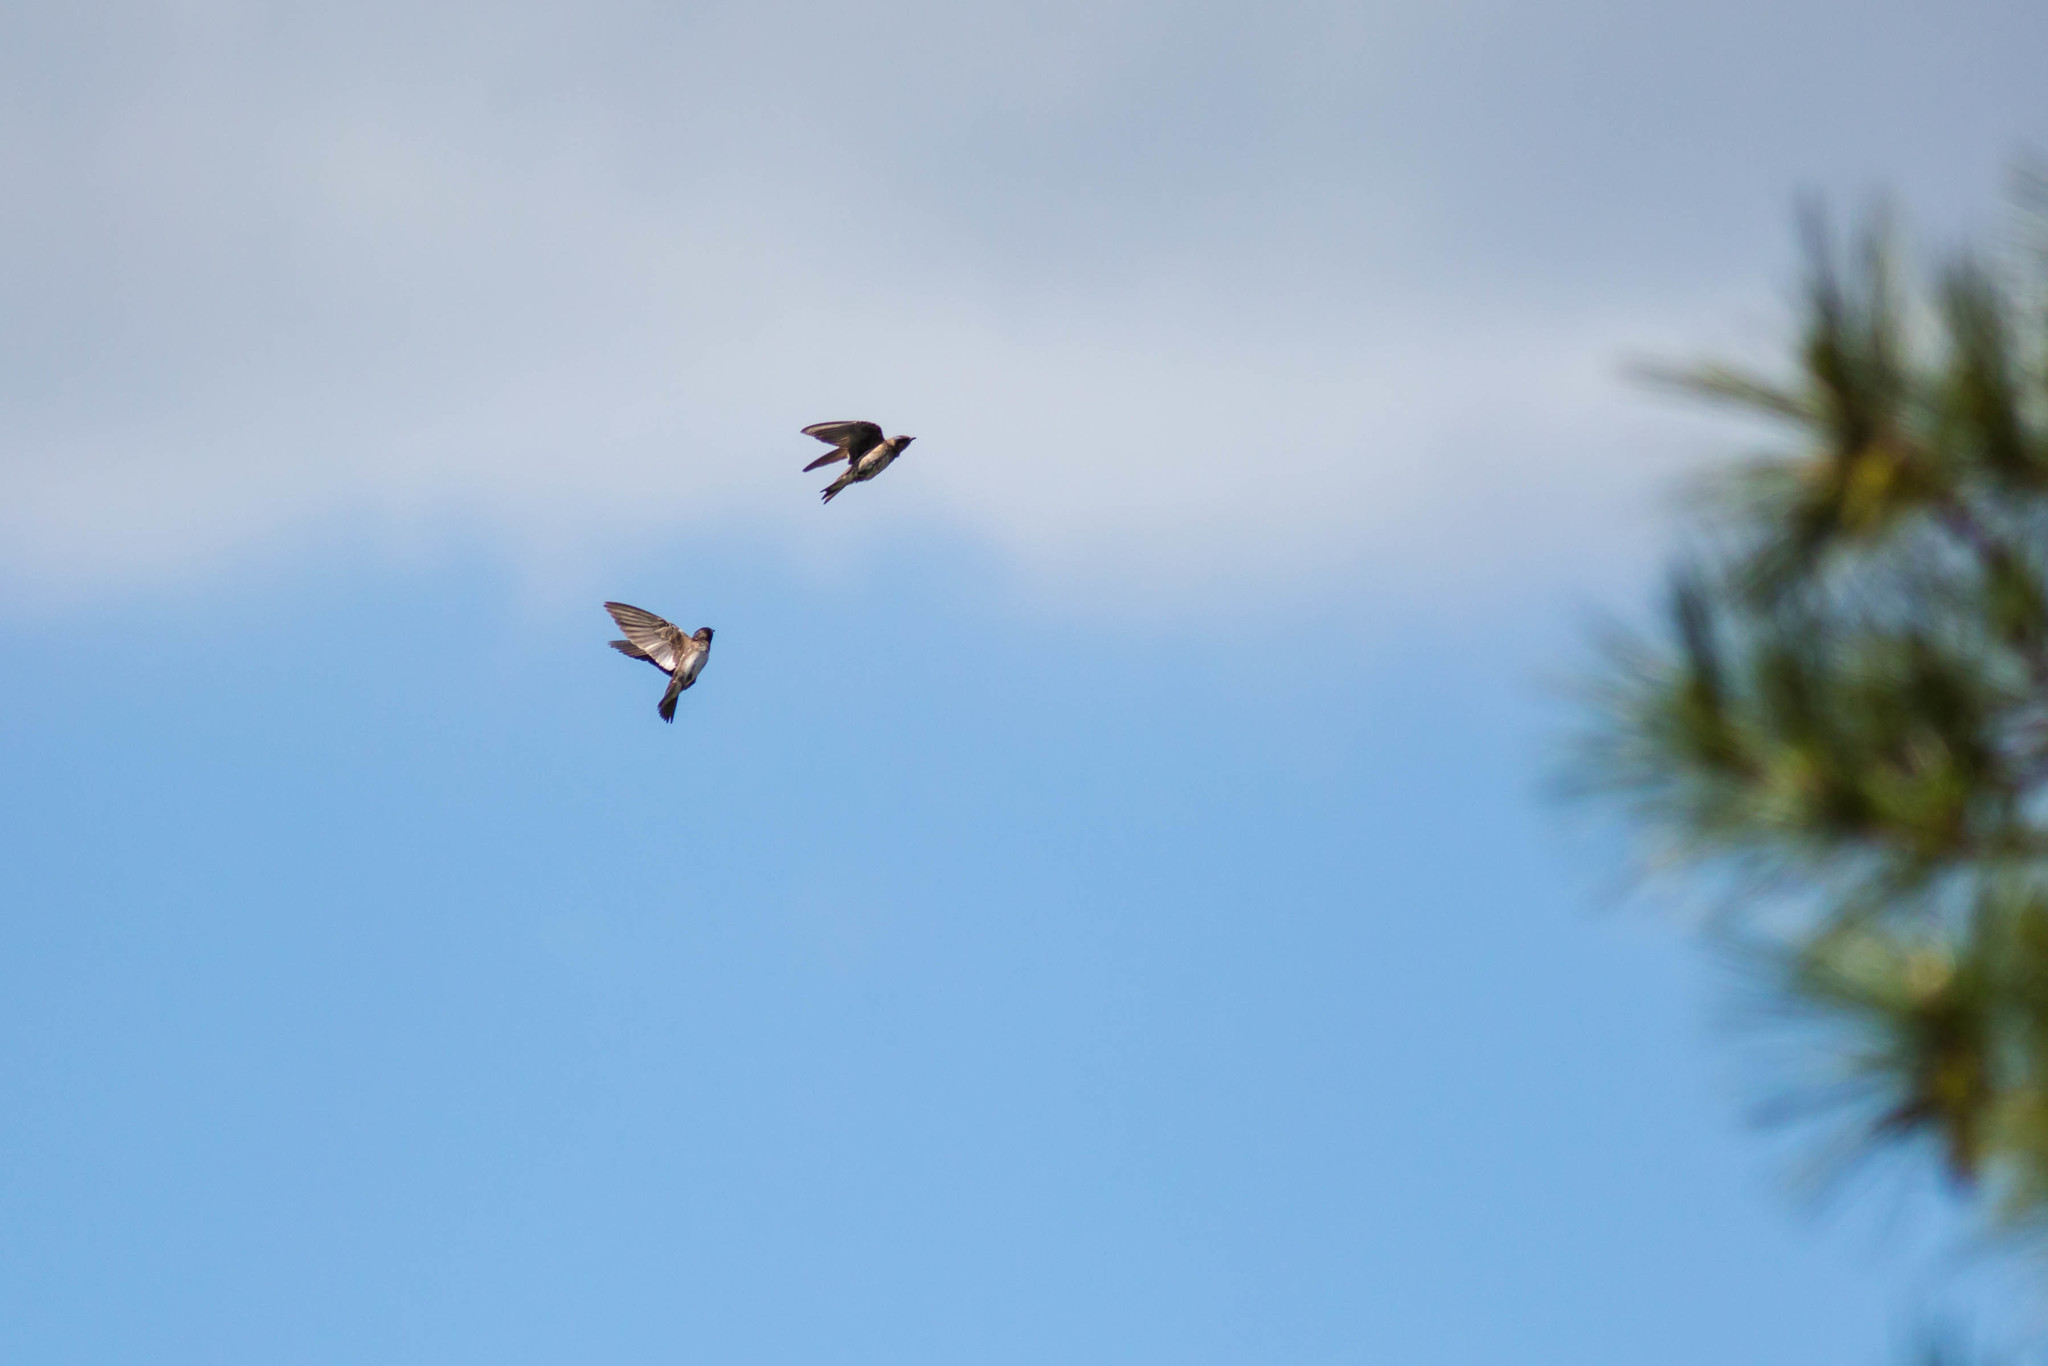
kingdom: Animalia
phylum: Chordata
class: Aves
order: Passeriformes
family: Hirundinidae
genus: Progne
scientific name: Progne subis
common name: Purple martin
